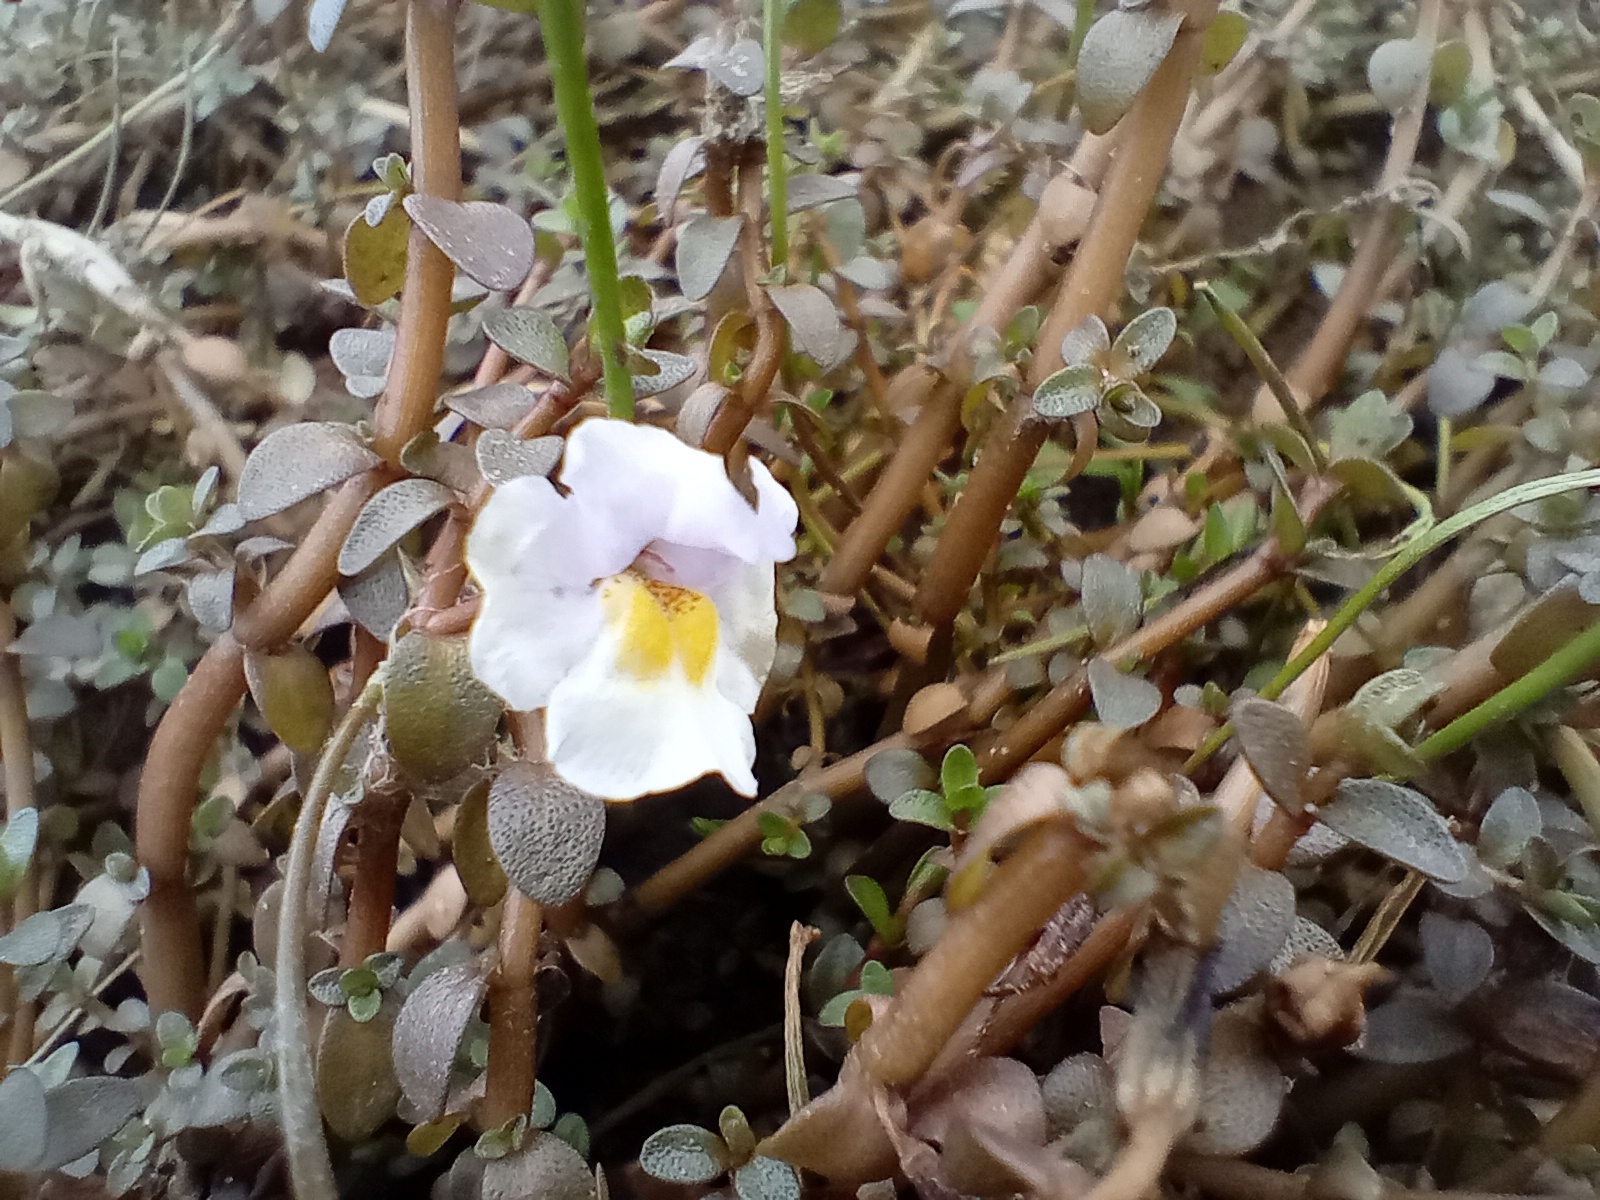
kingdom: Plantae
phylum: Tracheophyta
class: Magnoliopsida
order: Lamiales
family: Phrymaceae
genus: Thyridia
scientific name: Thyridia repens
